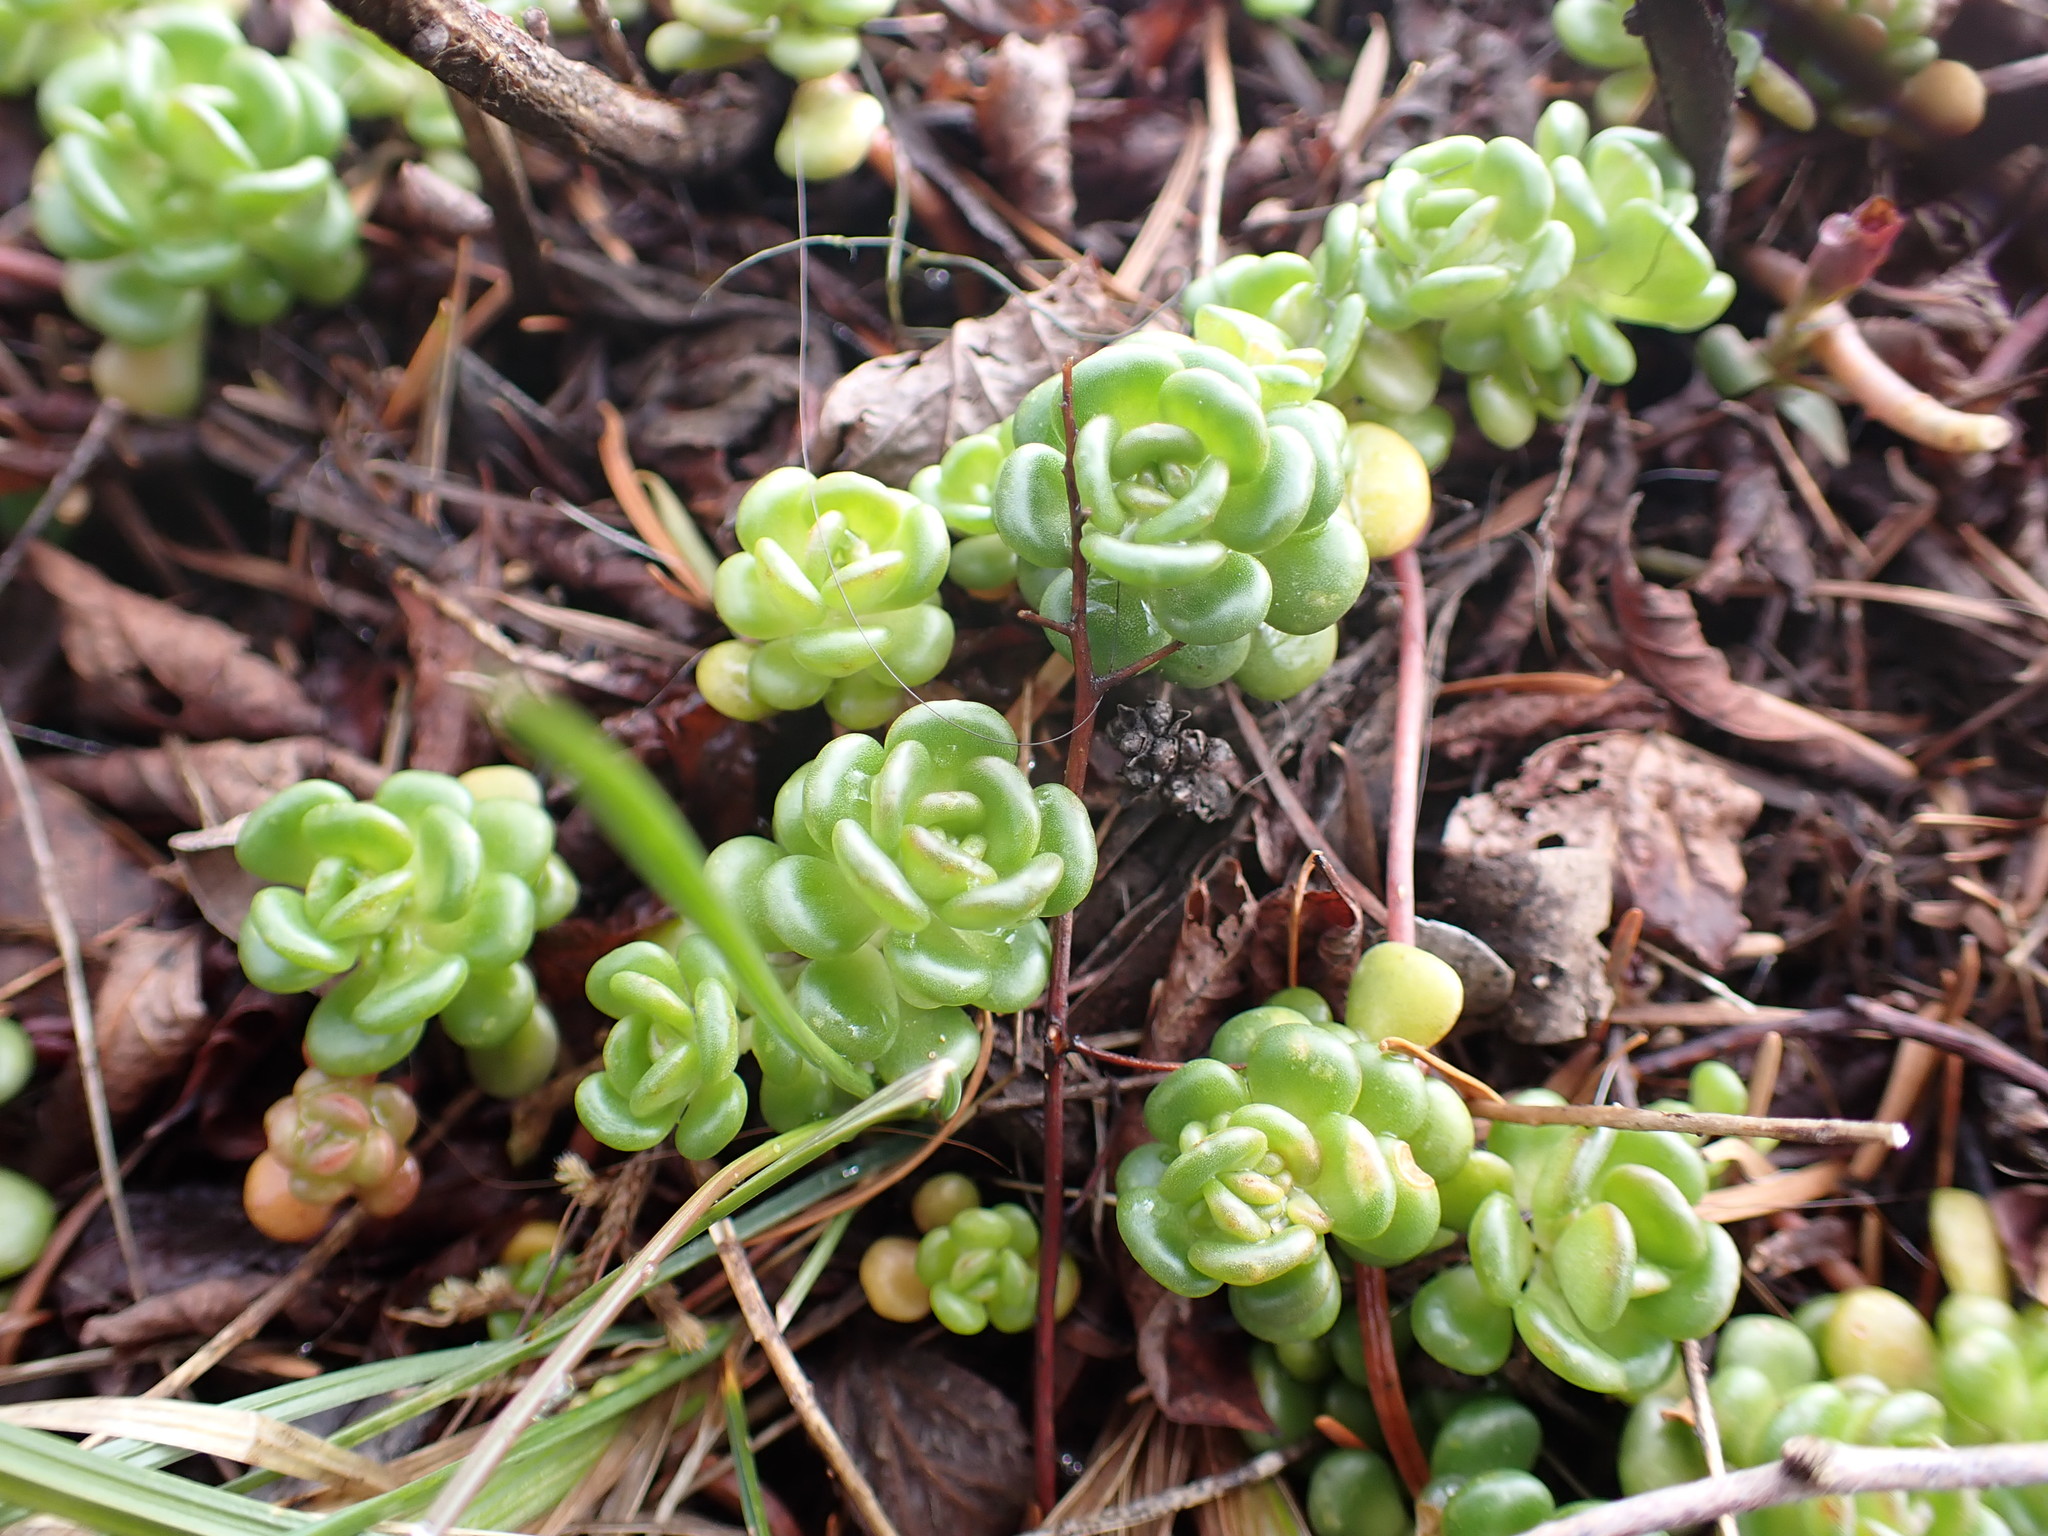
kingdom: Plantae
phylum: Tracheophyta
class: Magnoliopsida
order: Saxifragales
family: Crassulaceae
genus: Sedum
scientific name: Sedum oreganum
